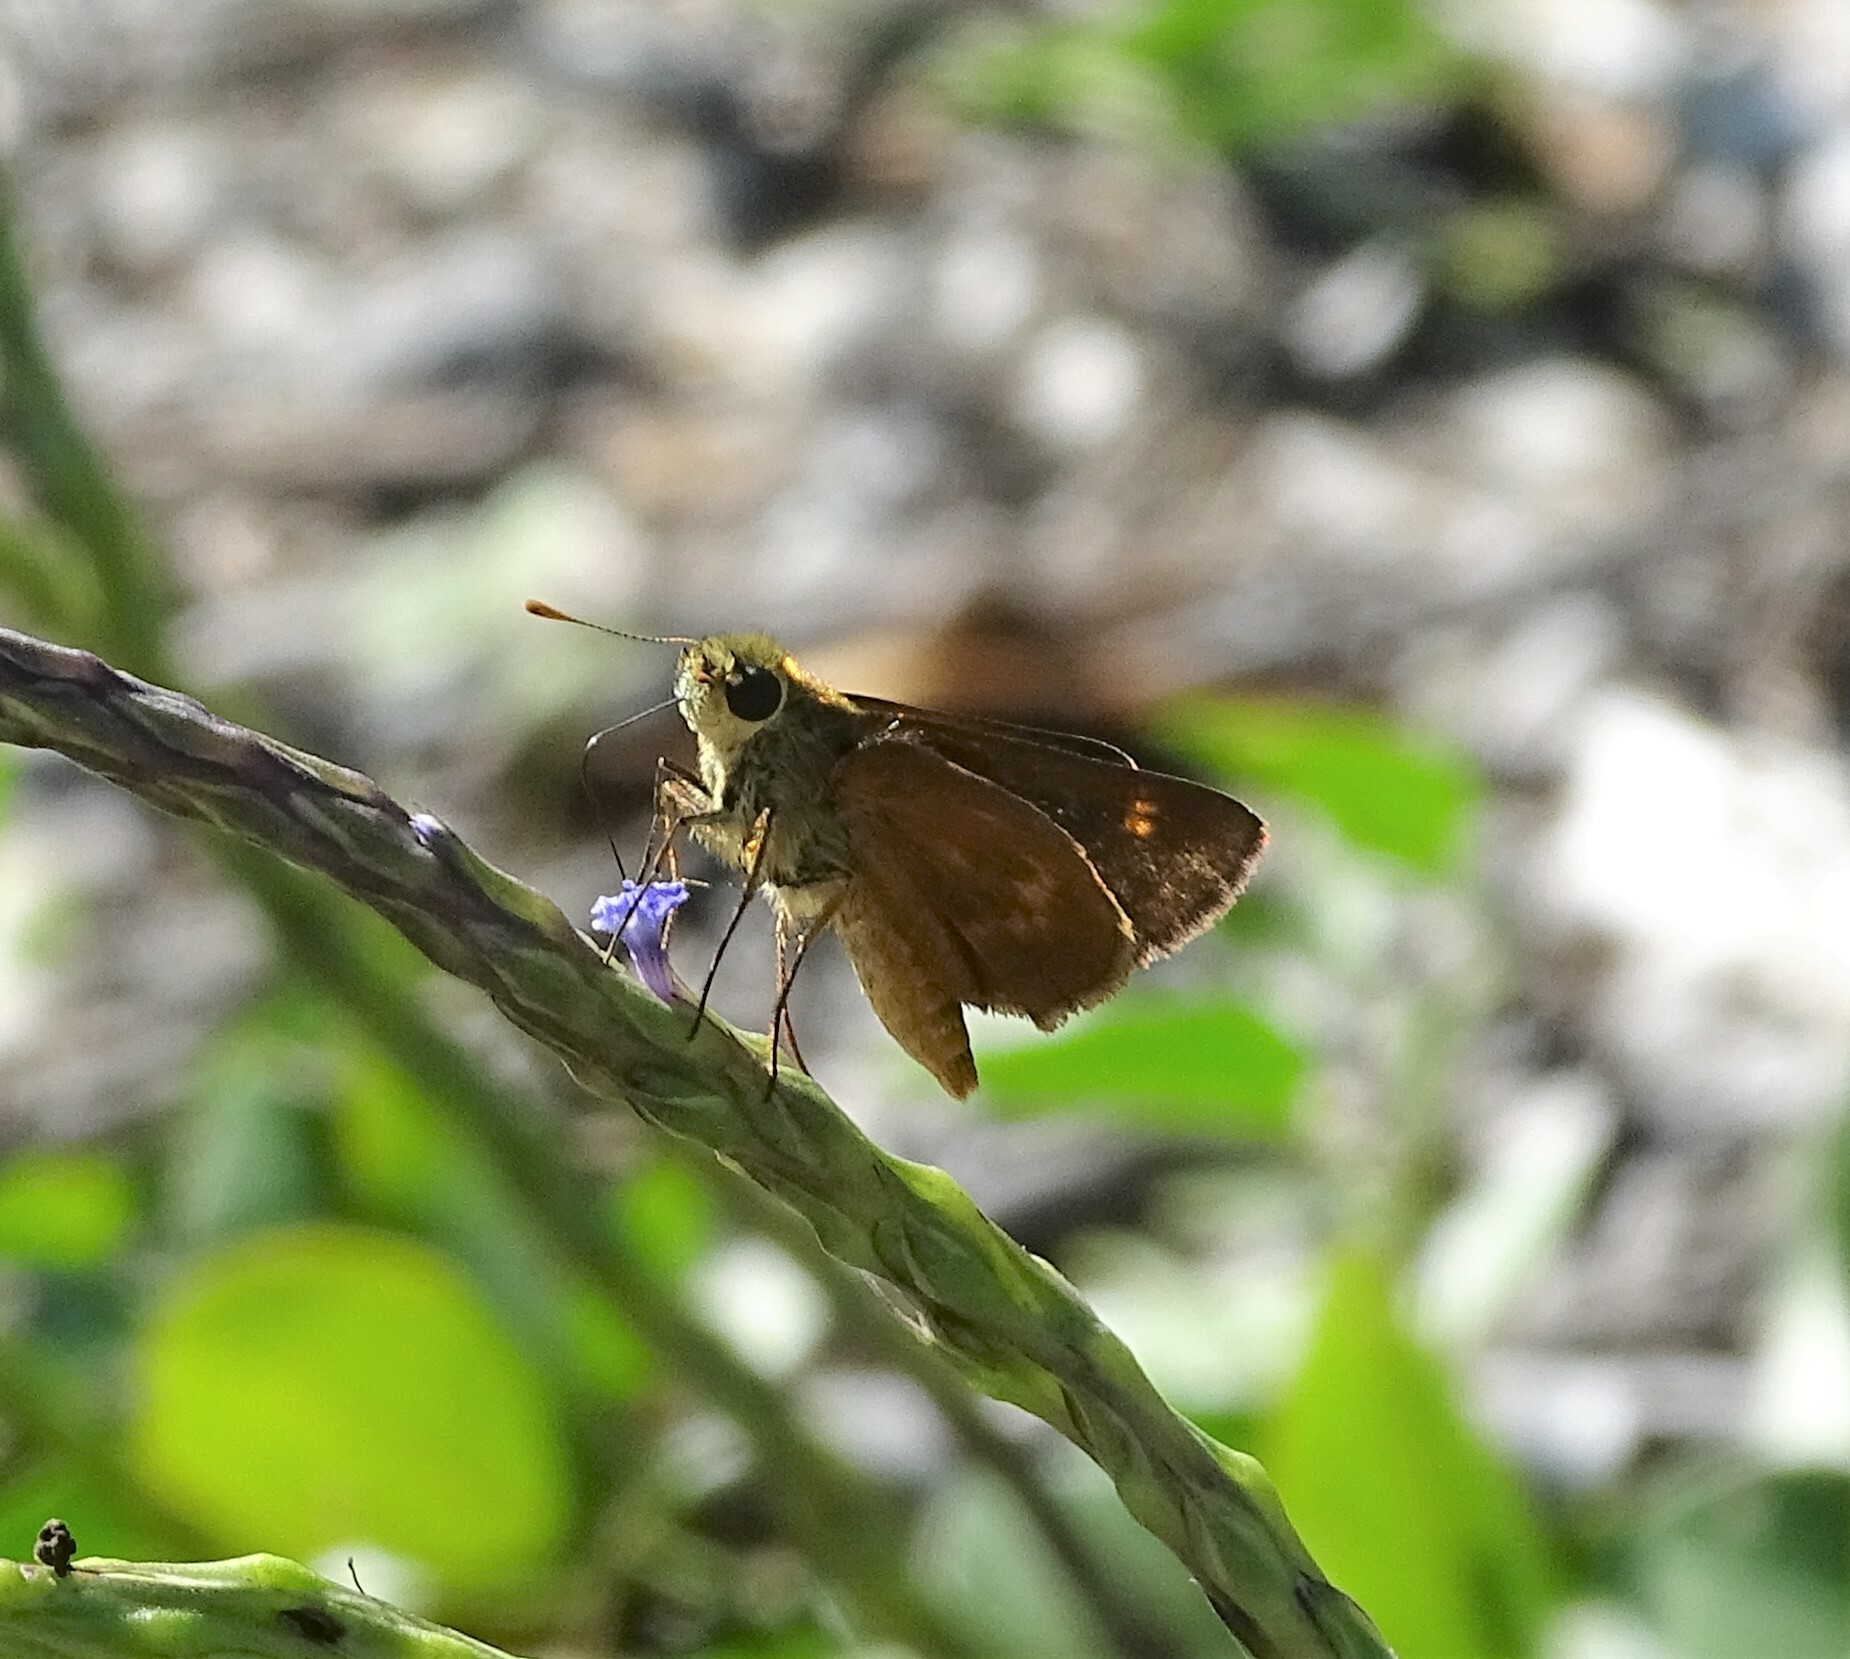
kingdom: Animalia
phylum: Arthropoda
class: Insecta
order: Lepidoptera
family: Hesperiidae
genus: Polites
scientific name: Polites otho
